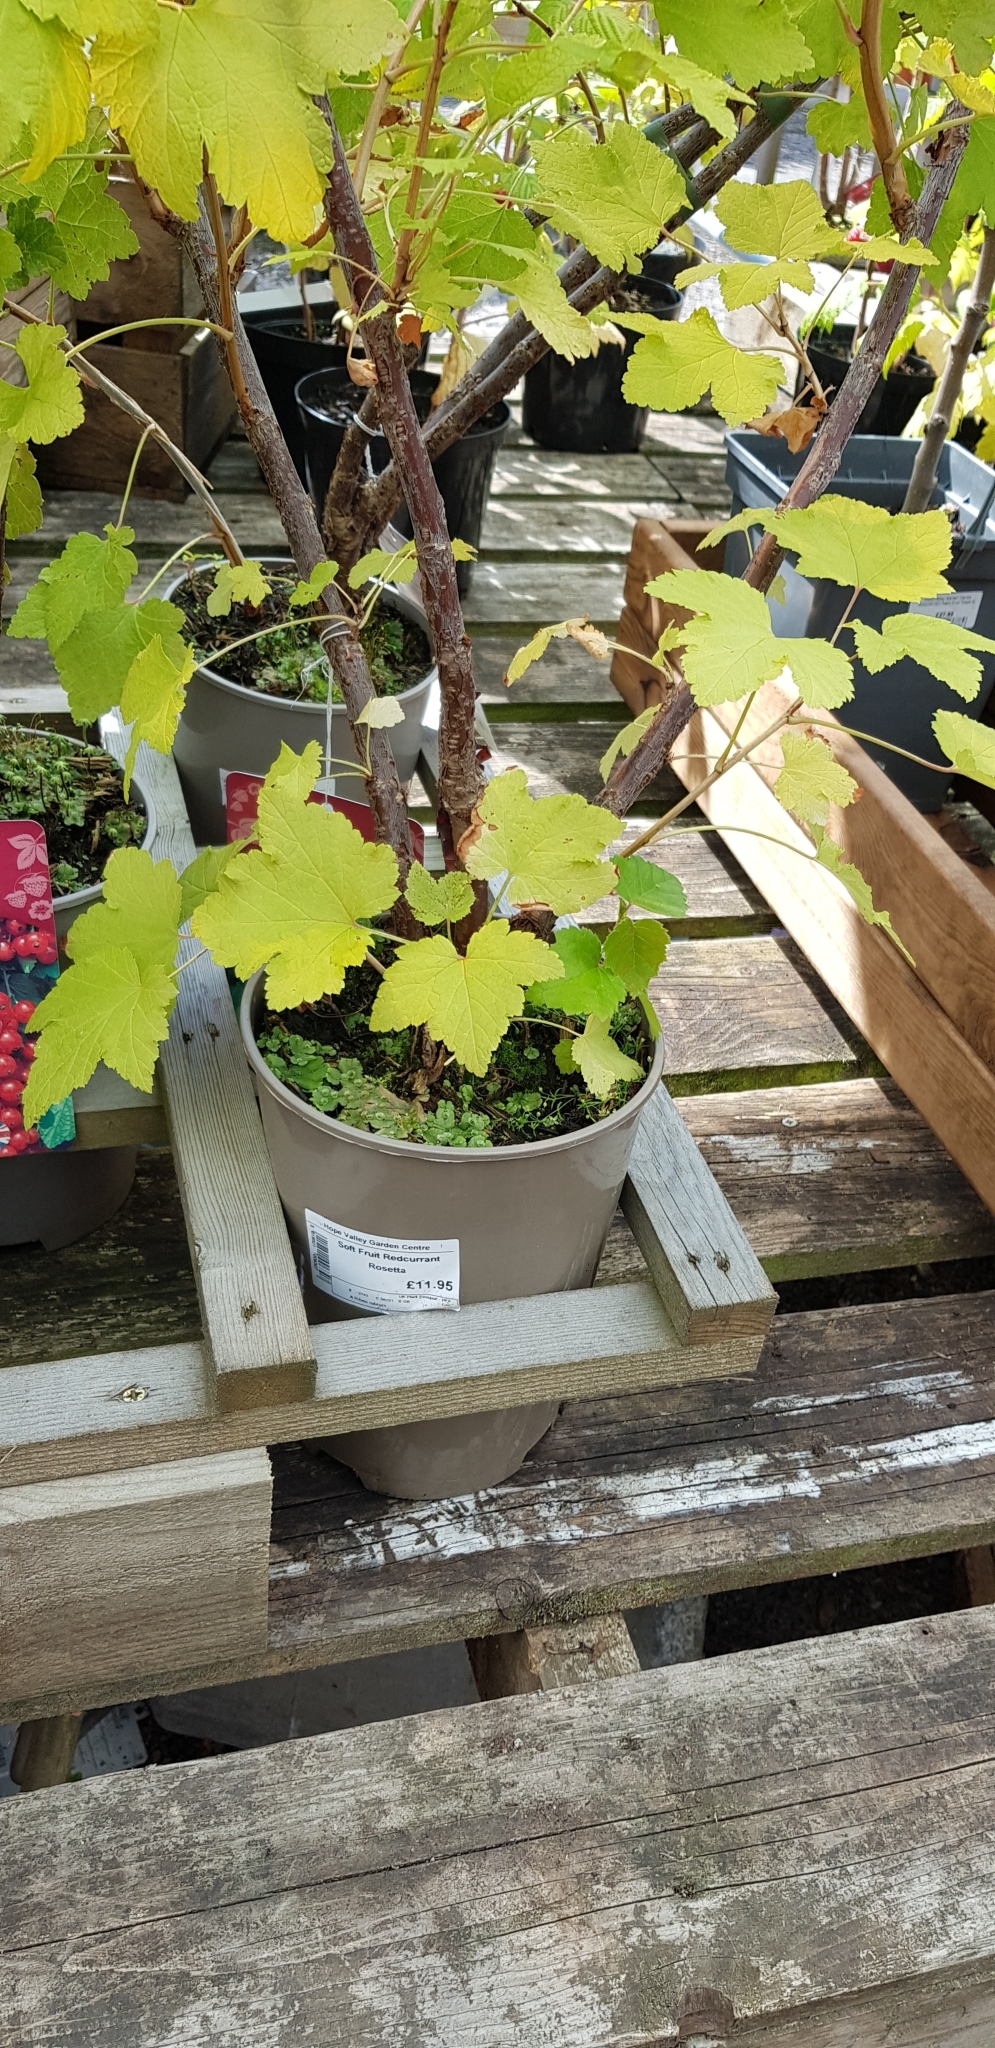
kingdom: Plantae
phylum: Marchantiophyta
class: Marchantiopsida
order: Marchantiales
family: Marchantiaceae
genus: Marchantia
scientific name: Marchantia polymorpha
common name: Common liverwort
